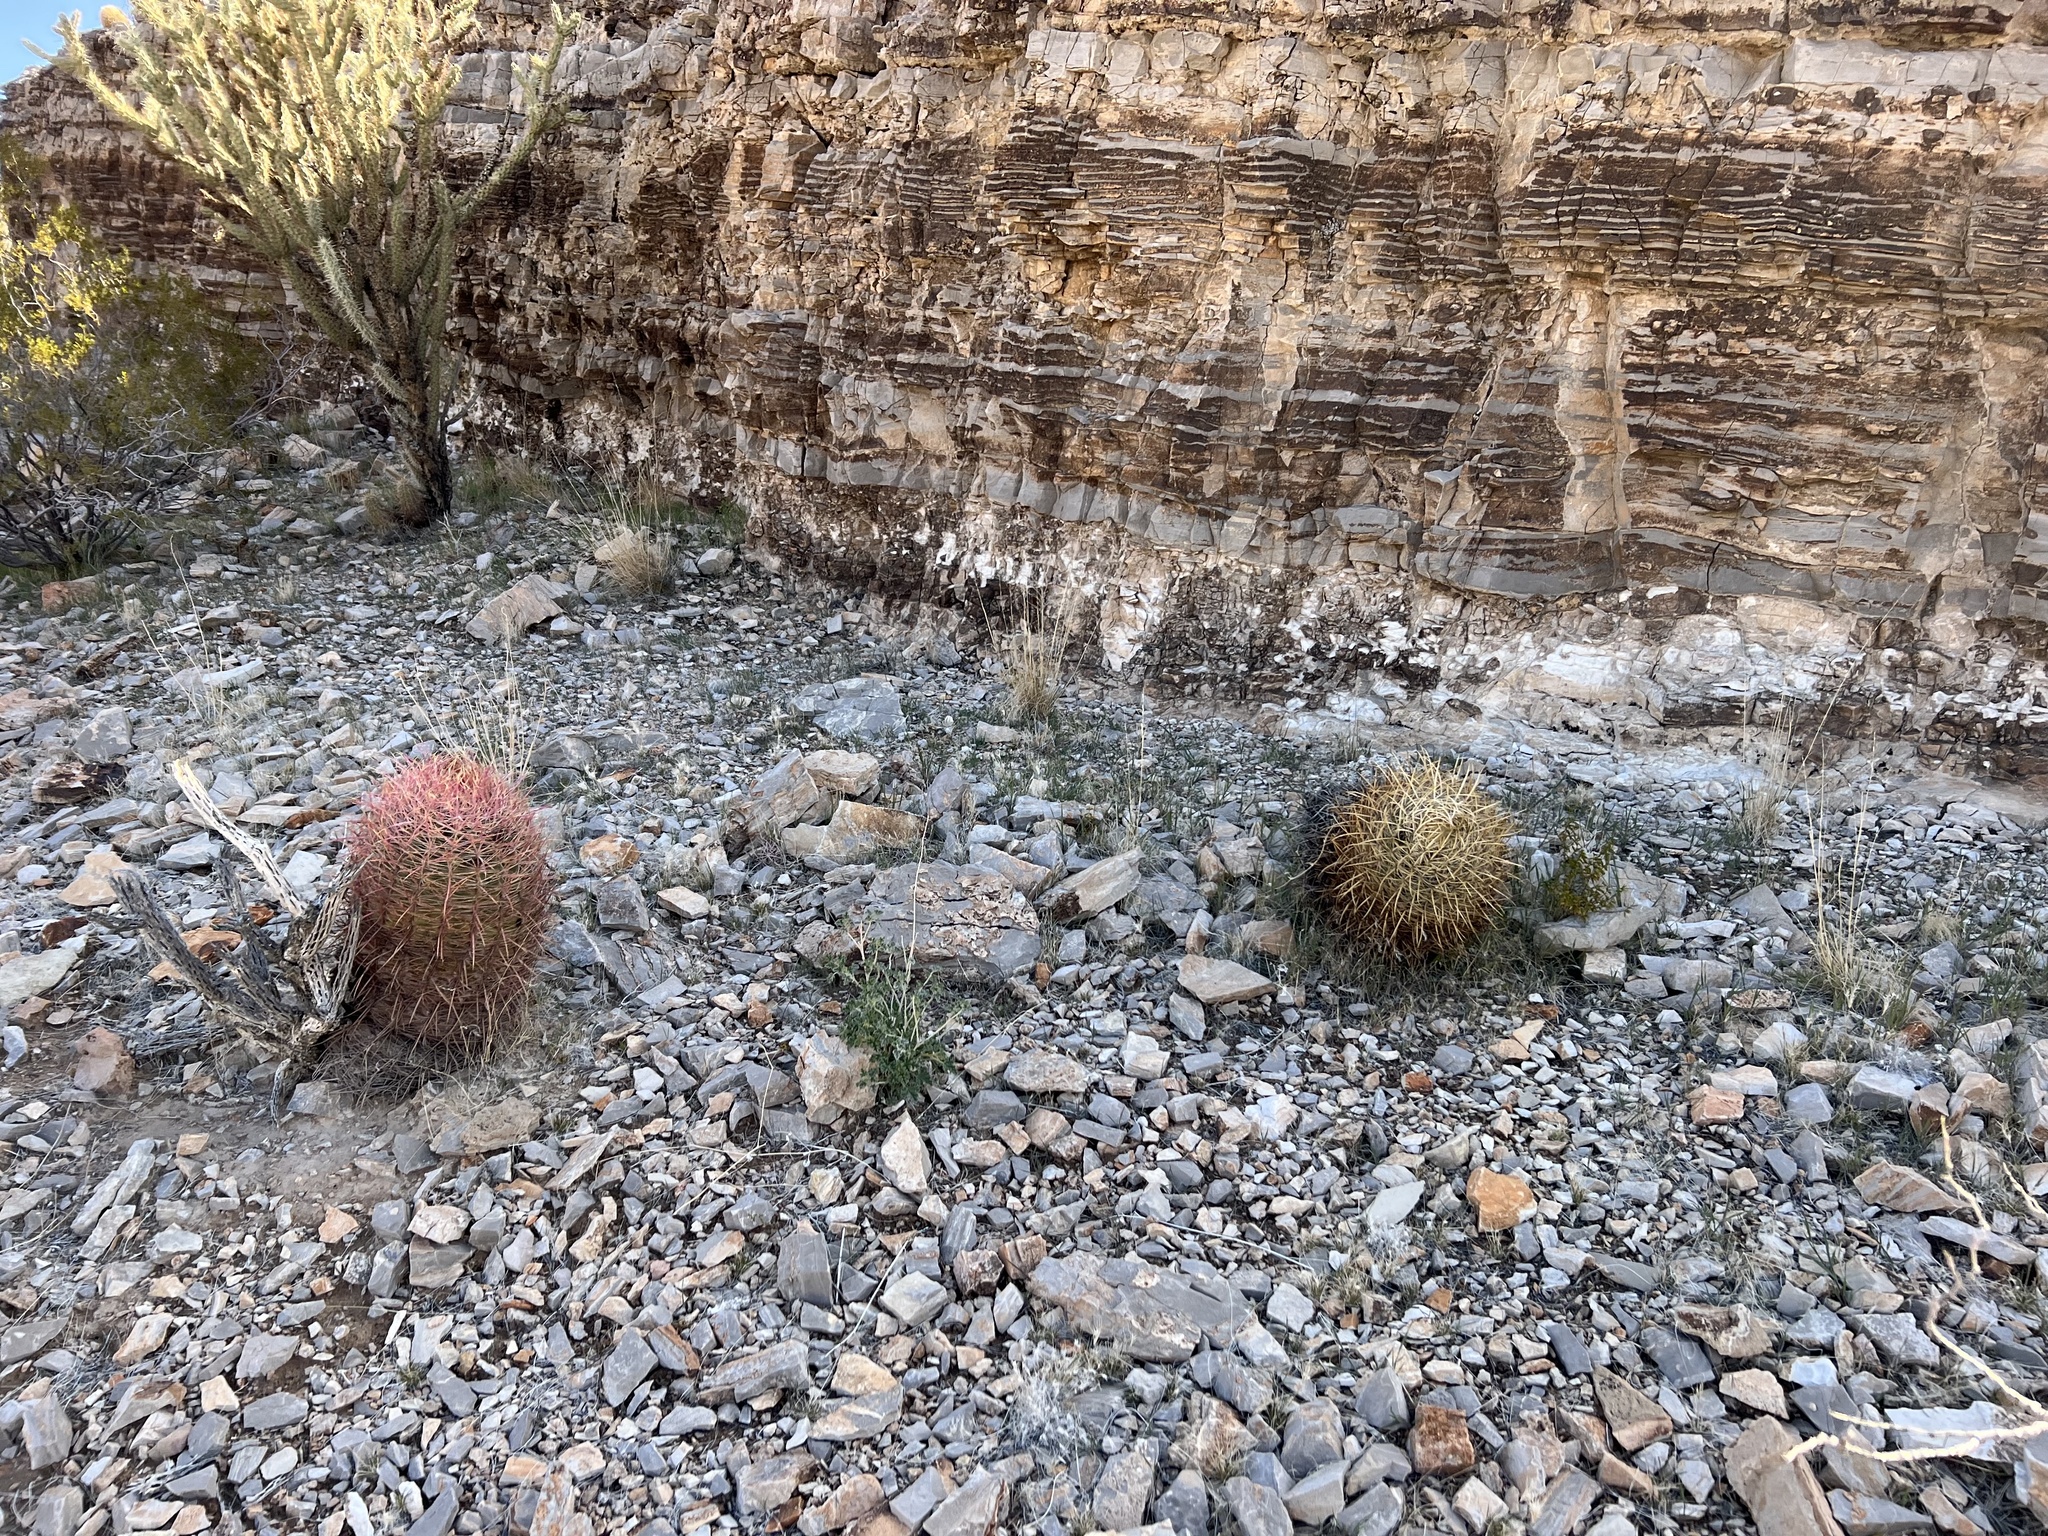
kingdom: Plantae
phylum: Tracheophyta
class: Magnoliopsida
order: Caryophyllales
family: Cactaceae
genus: Ferocactus
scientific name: Ferocactus cylindraceus
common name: California barrel cactus
